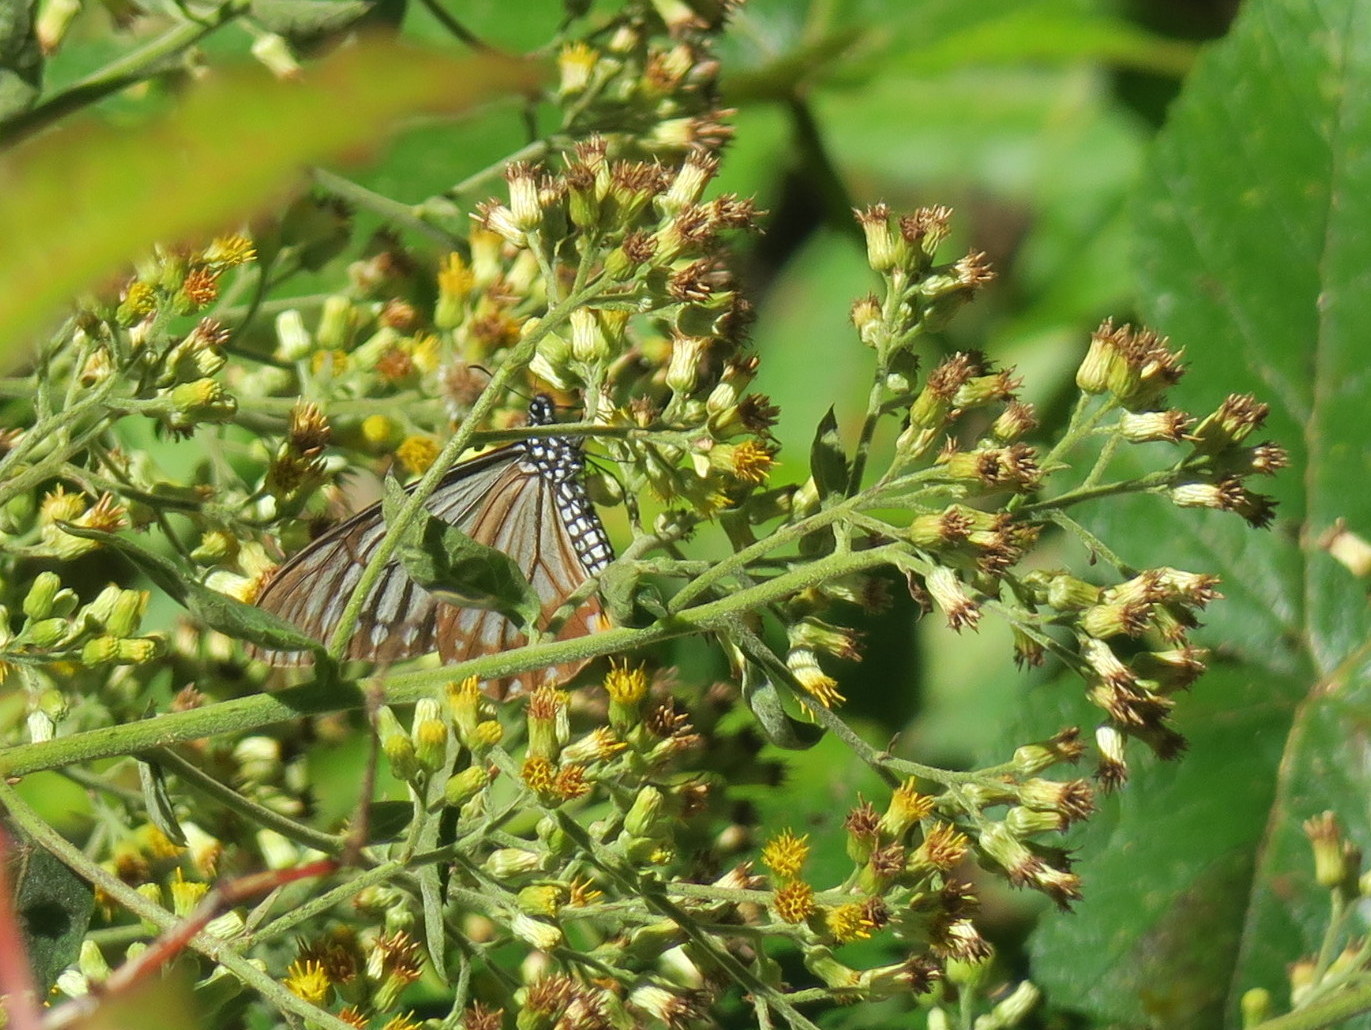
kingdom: Animalia
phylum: Arthropoda
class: Insecta
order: Lepidoptera
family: Papilionidae
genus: Papilio
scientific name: Papilio epycides
